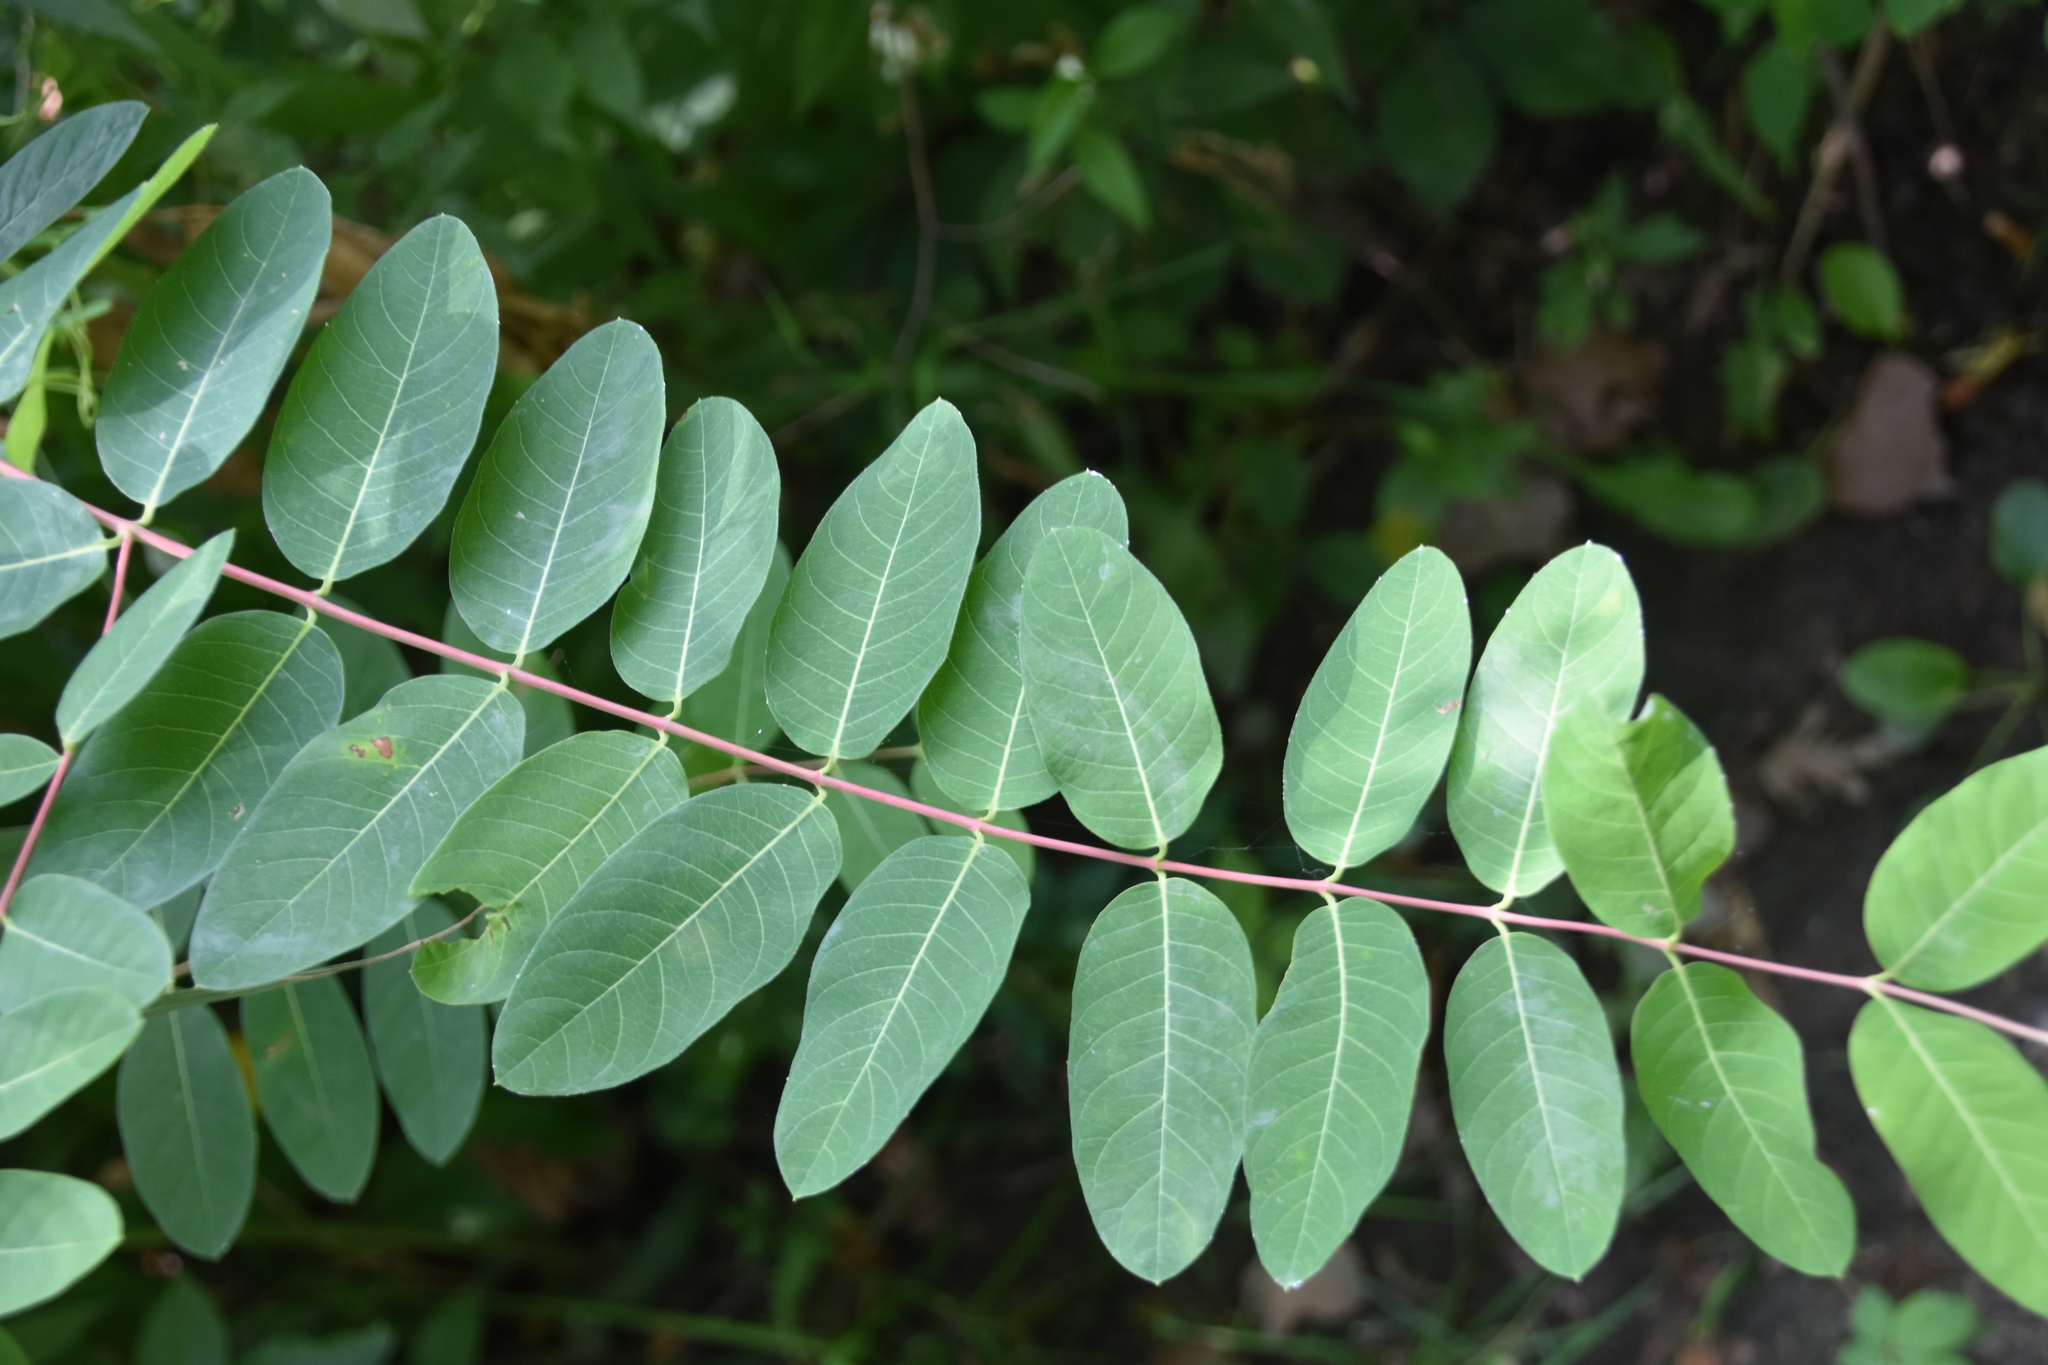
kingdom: Plantae
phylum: Tracheophyta
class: Polypodiopsida
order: Osmundales
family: Osmundaceae
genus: Osmunda
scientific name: Osmunda spectabilis
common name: American royal fern
